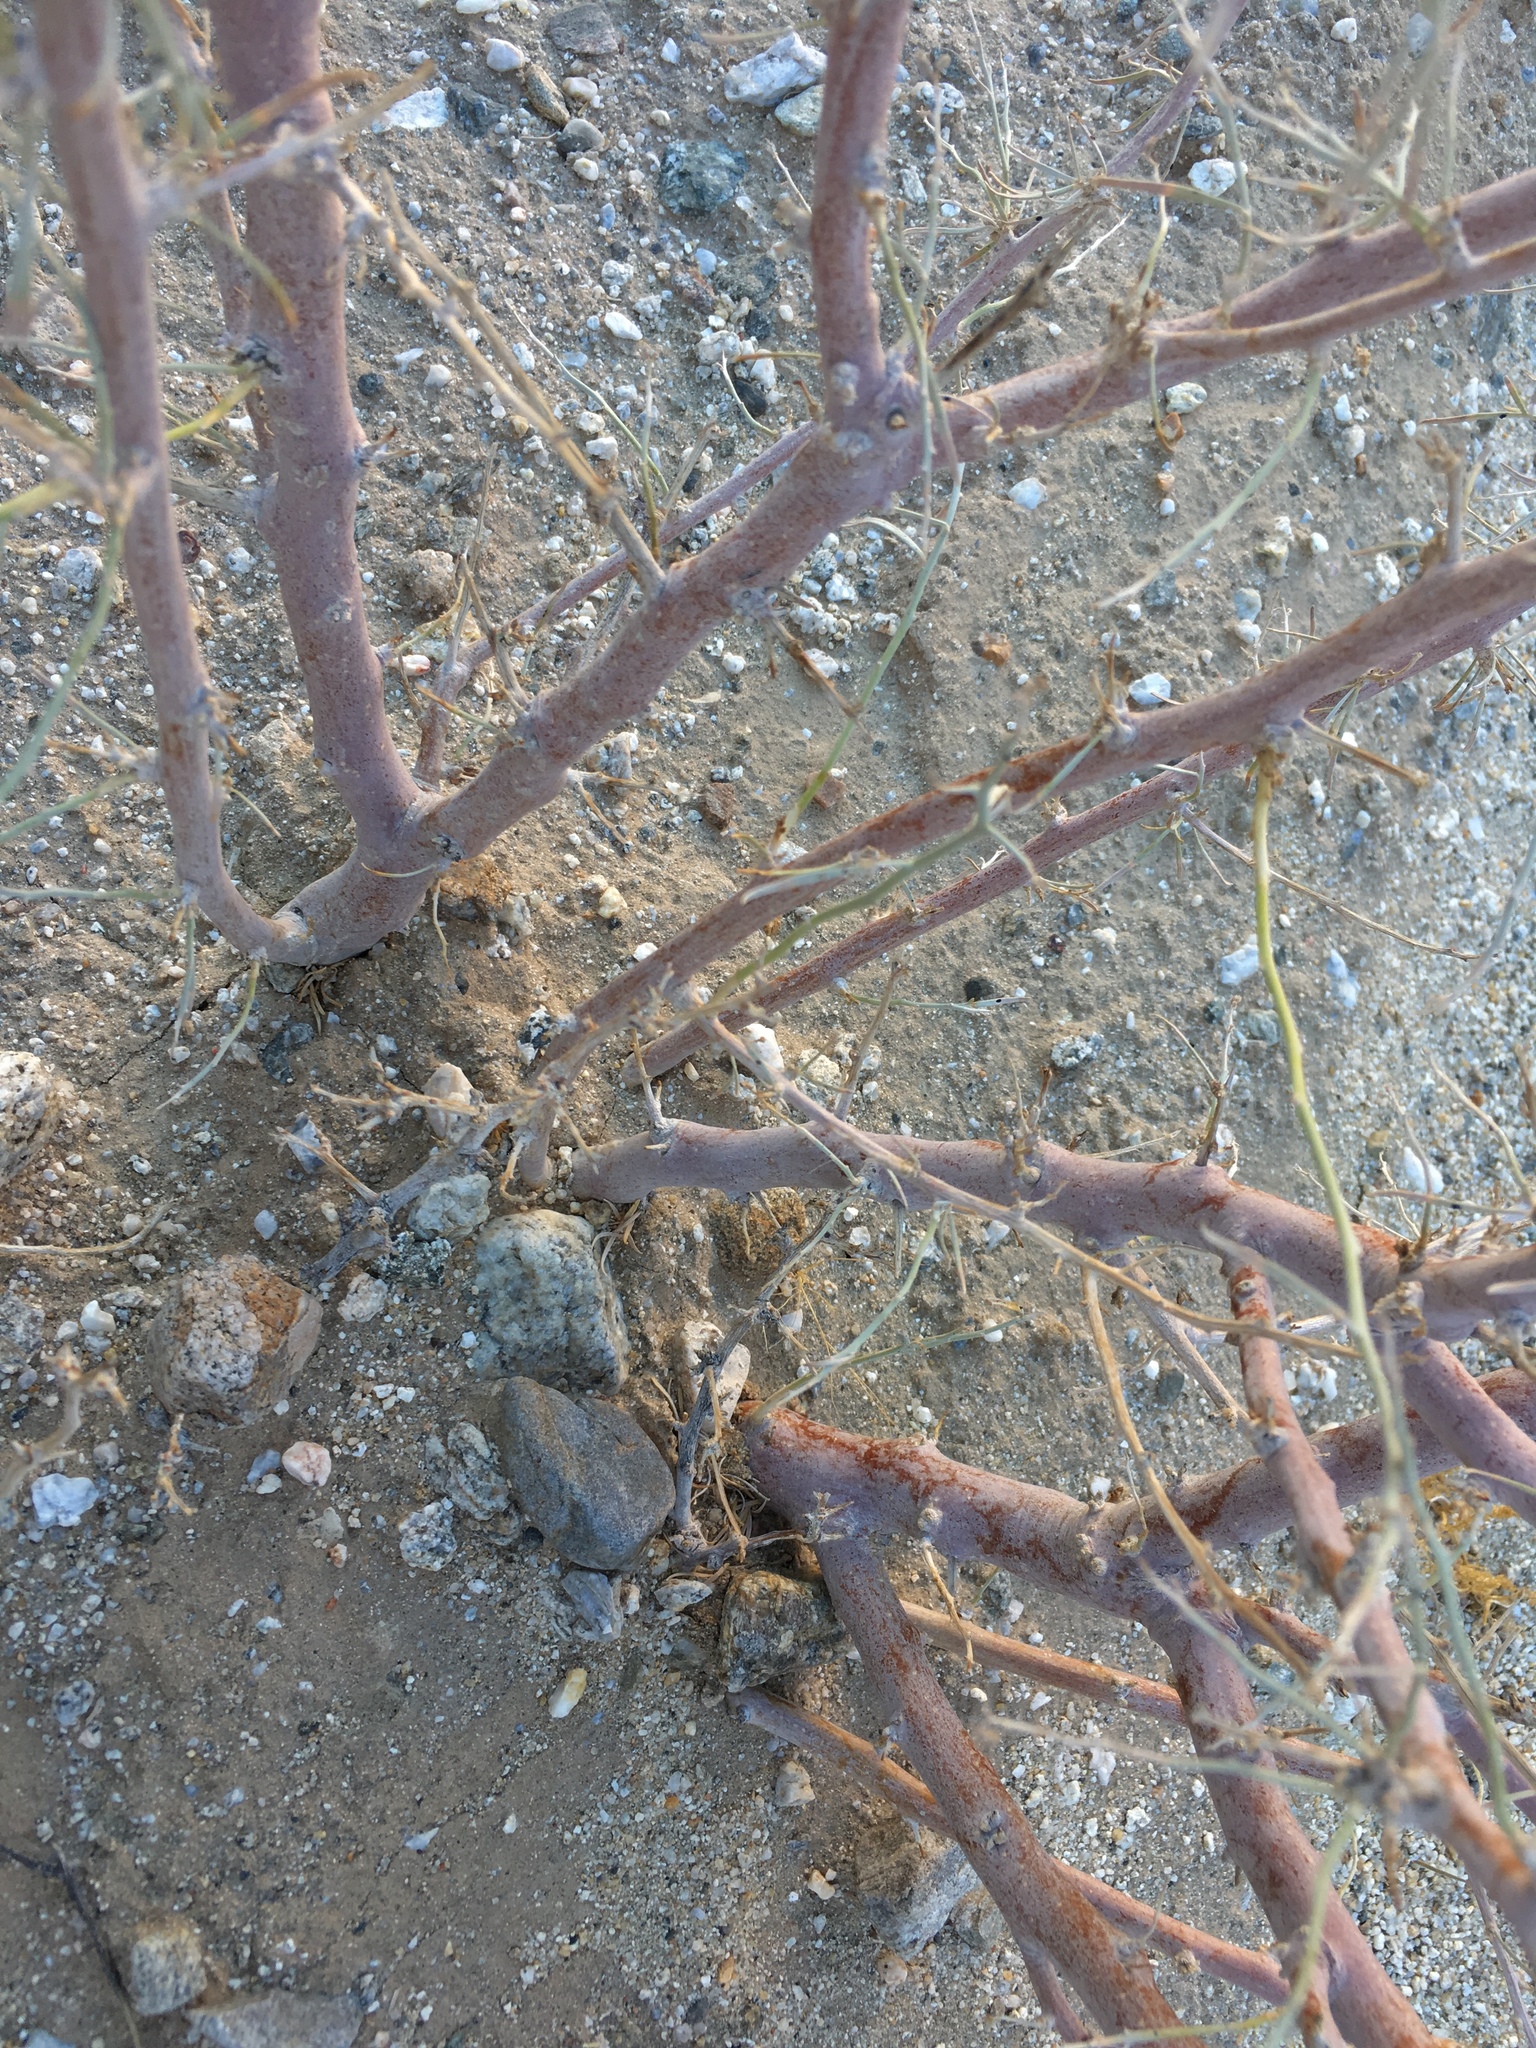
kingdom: Plantae
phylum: Tracheophyta
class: Magnoliopsida
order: Fabales
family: Fabaceae
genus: Psorothamnus
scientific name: Psorothamnus schottii
